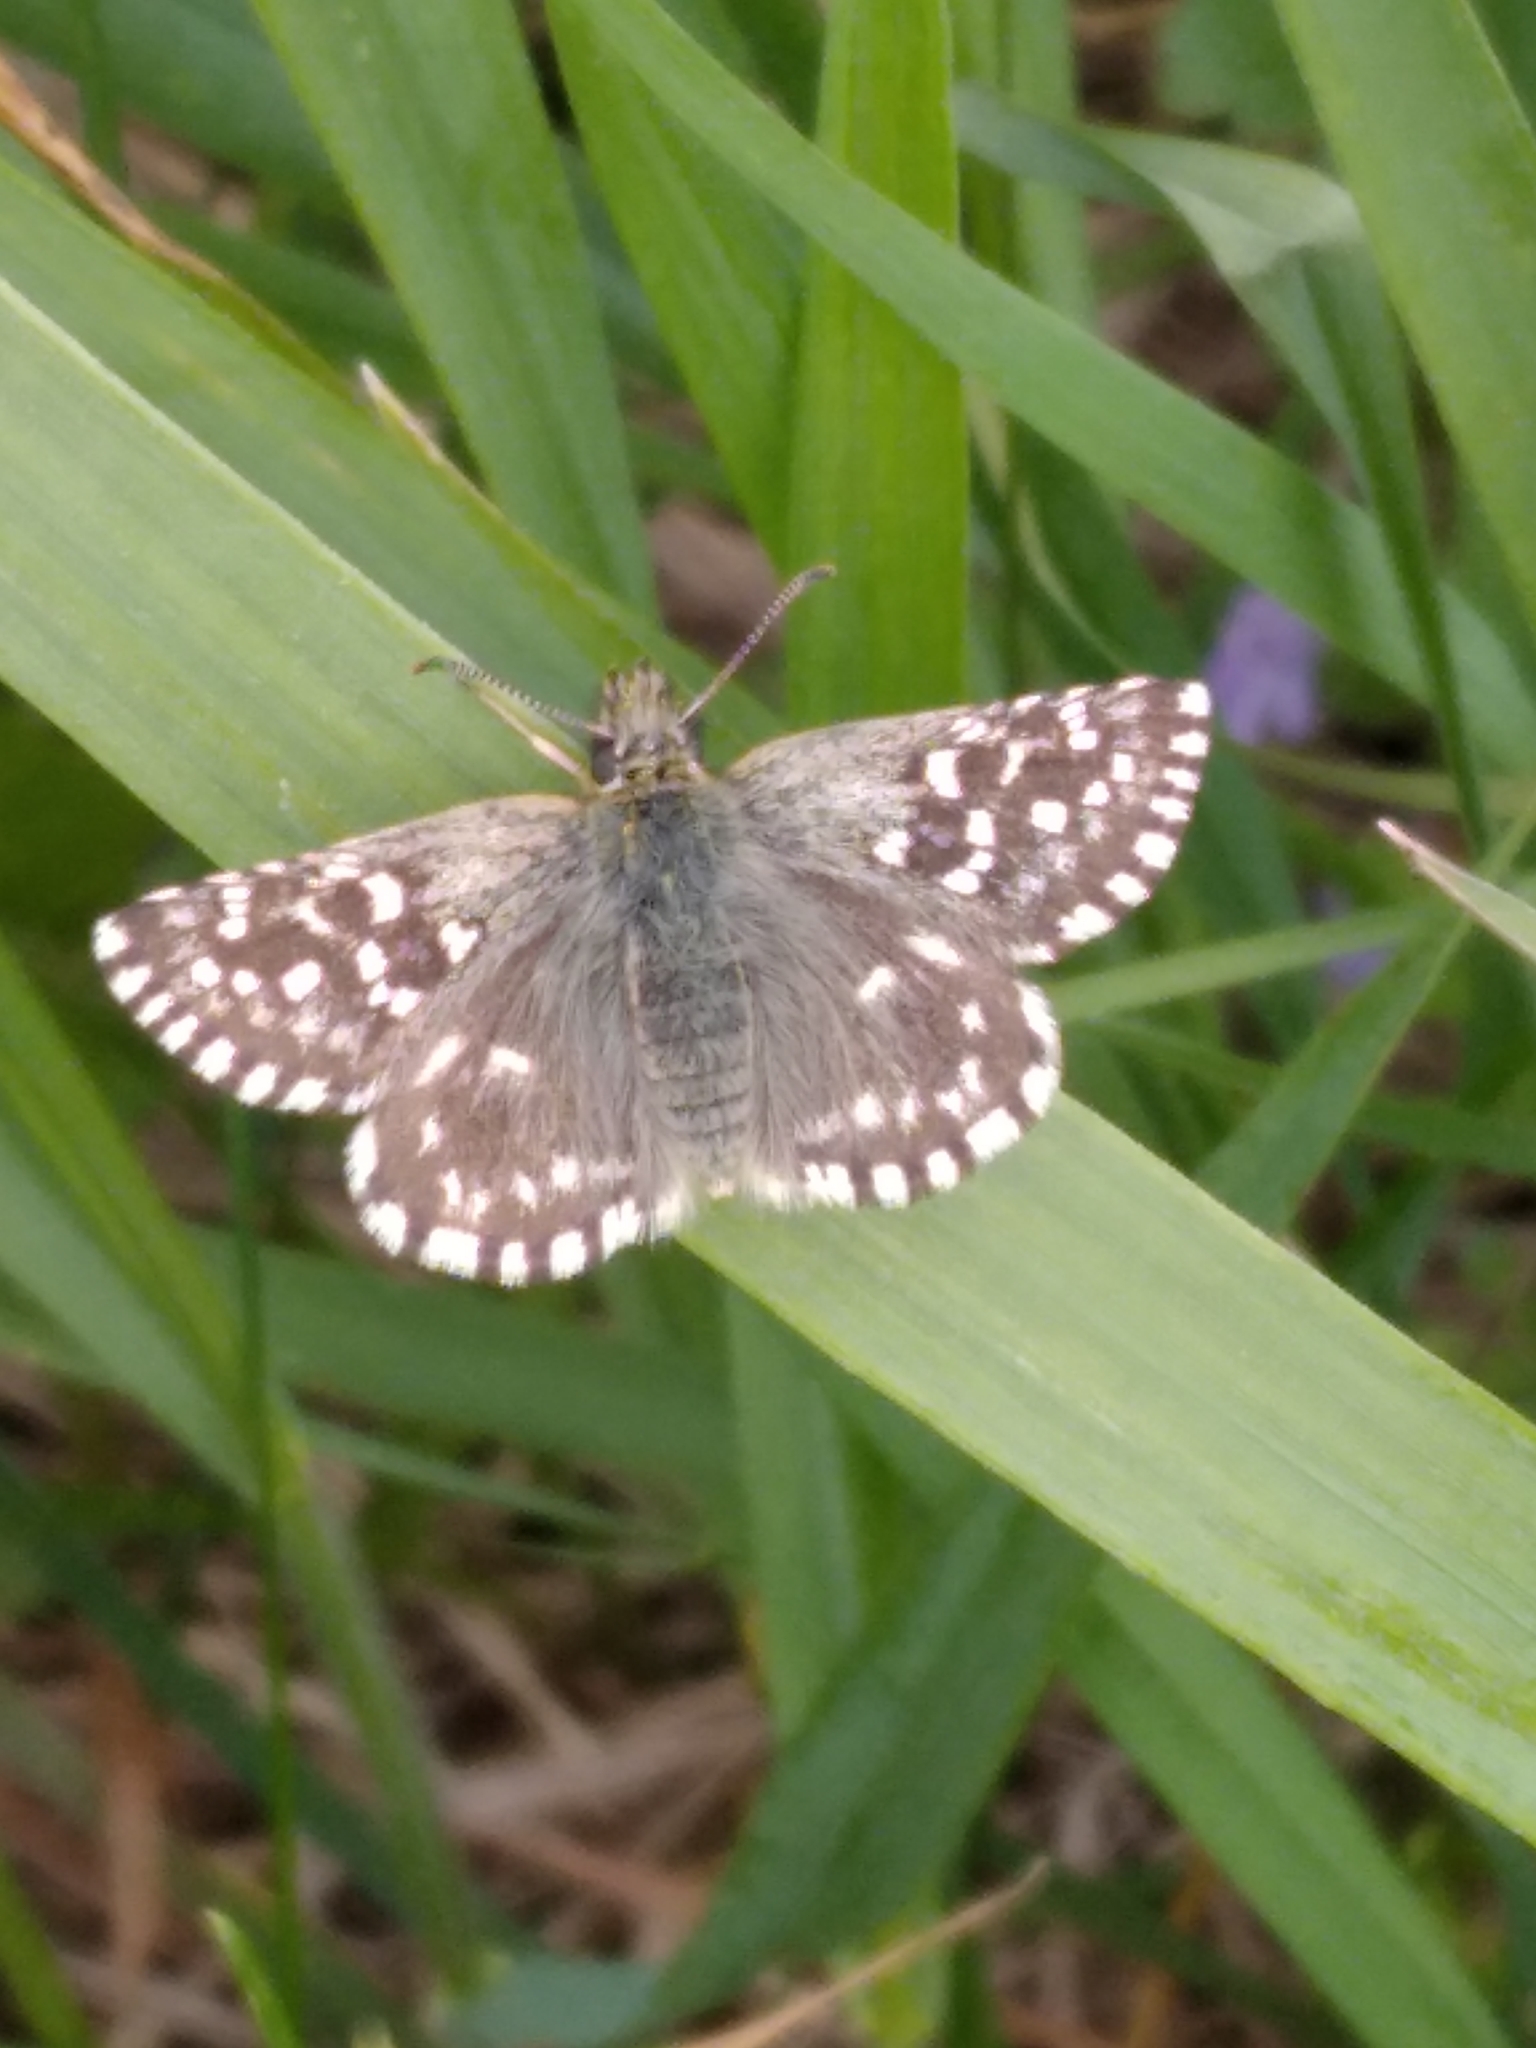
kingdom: Animalia
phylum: Arthropoda
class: Insecta
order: Lepidoptera
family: Hesperiidae
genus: Pyrgus
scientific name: Pyrgus malvae
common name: Grizzled skipper
